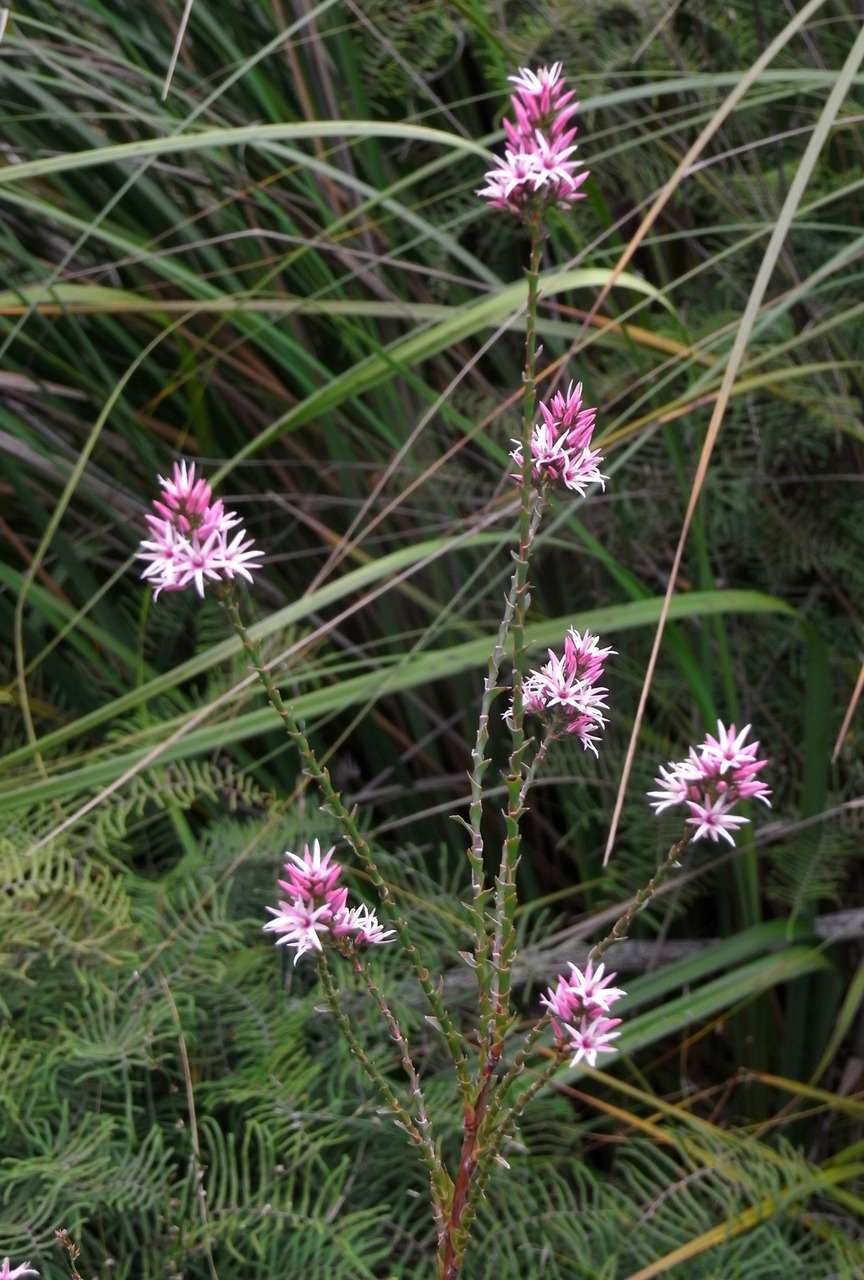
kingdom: Plantae
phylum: Tracheophyta
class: Magnoliopsida
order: Ericales
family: Ericaceae
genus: Sprengelia
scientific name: Sprengelia incarnata
